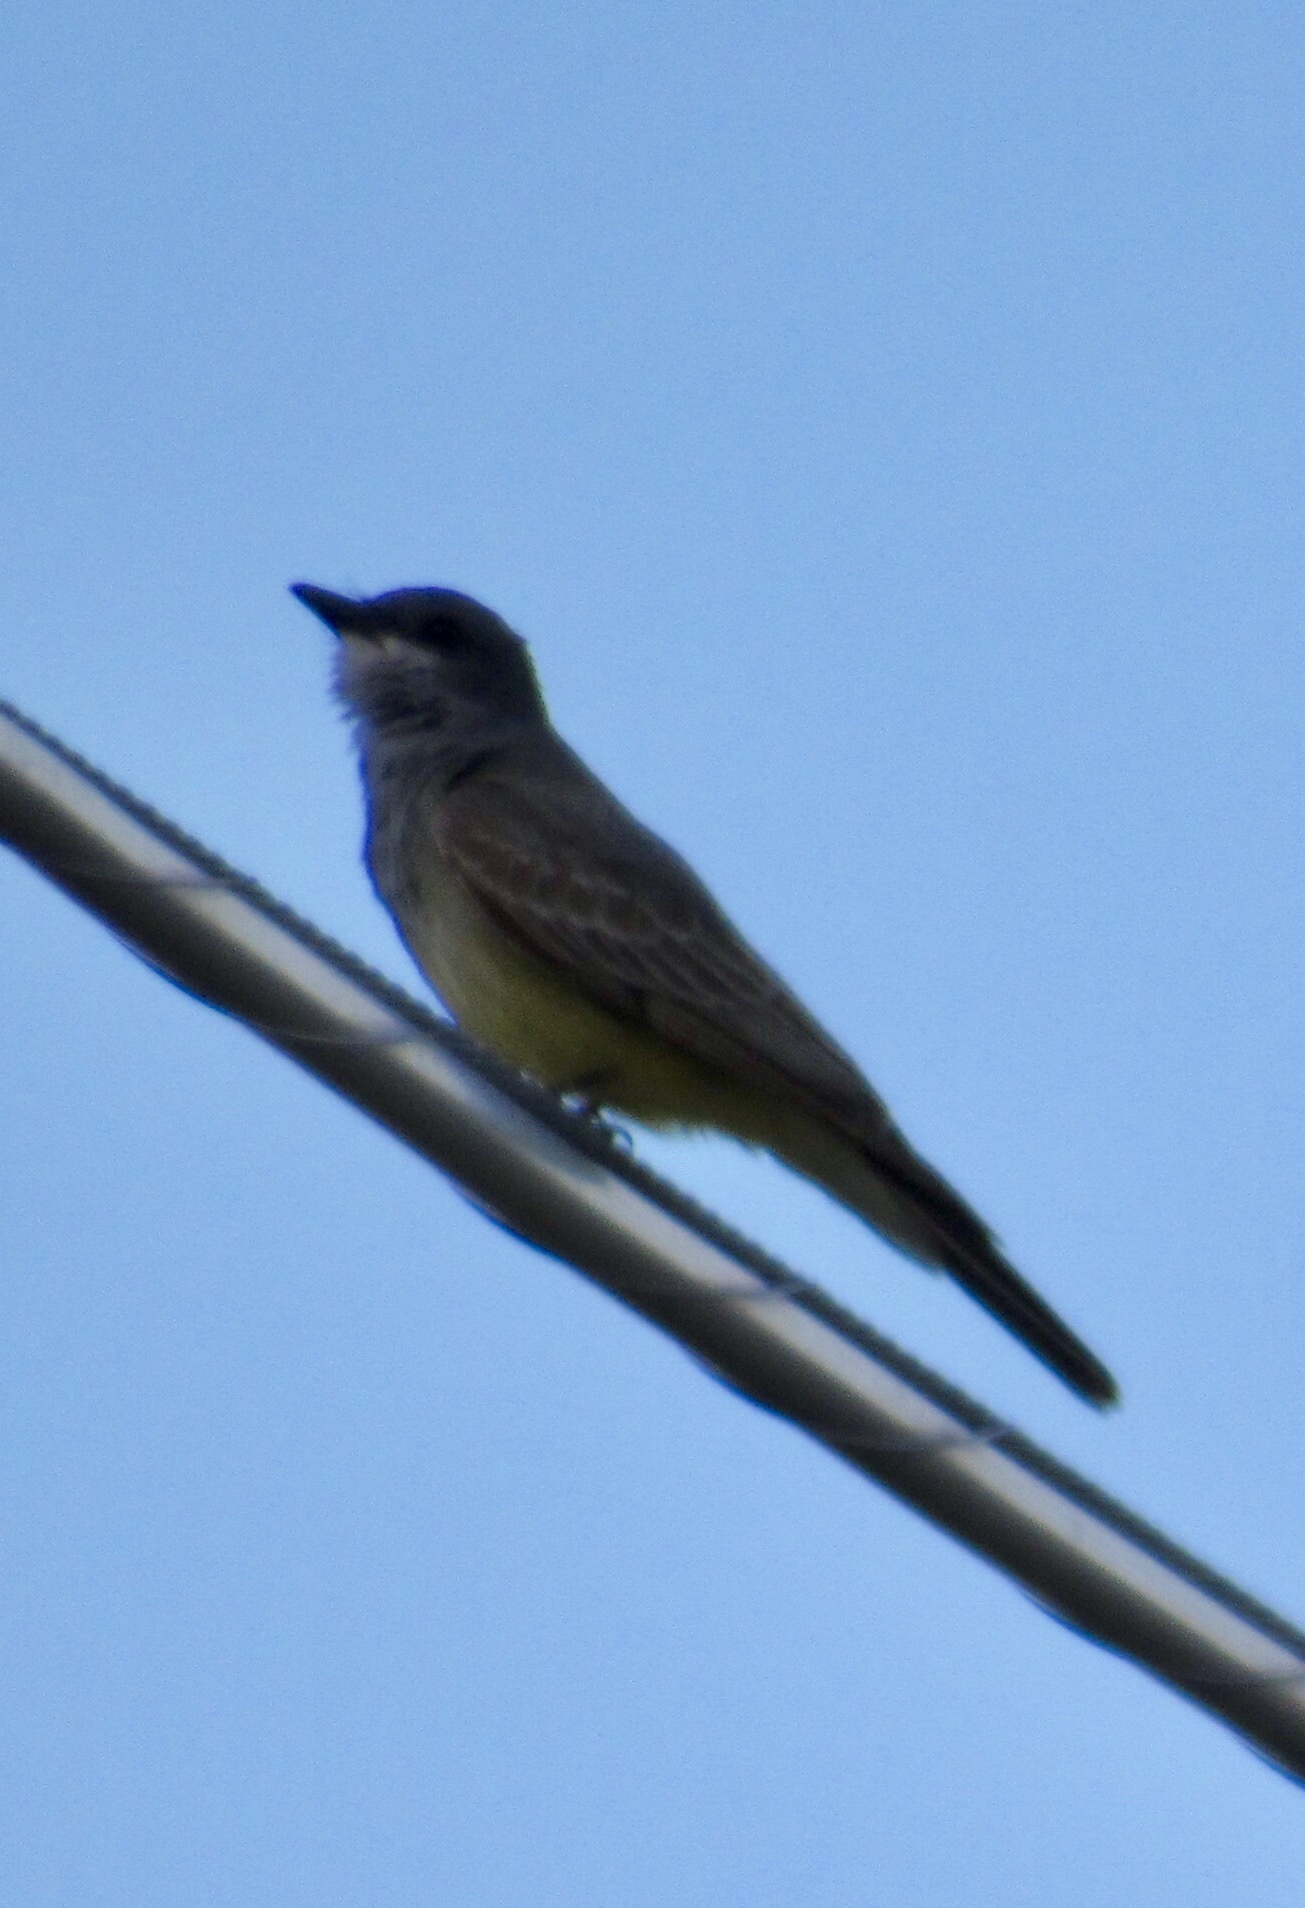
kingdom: Animalia
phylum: Chordata
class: Aves
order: Passeriformes
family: Tyrannidae
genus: Tyrannus
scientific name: Tyrannus vociferans
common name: Cassin's kingbird
